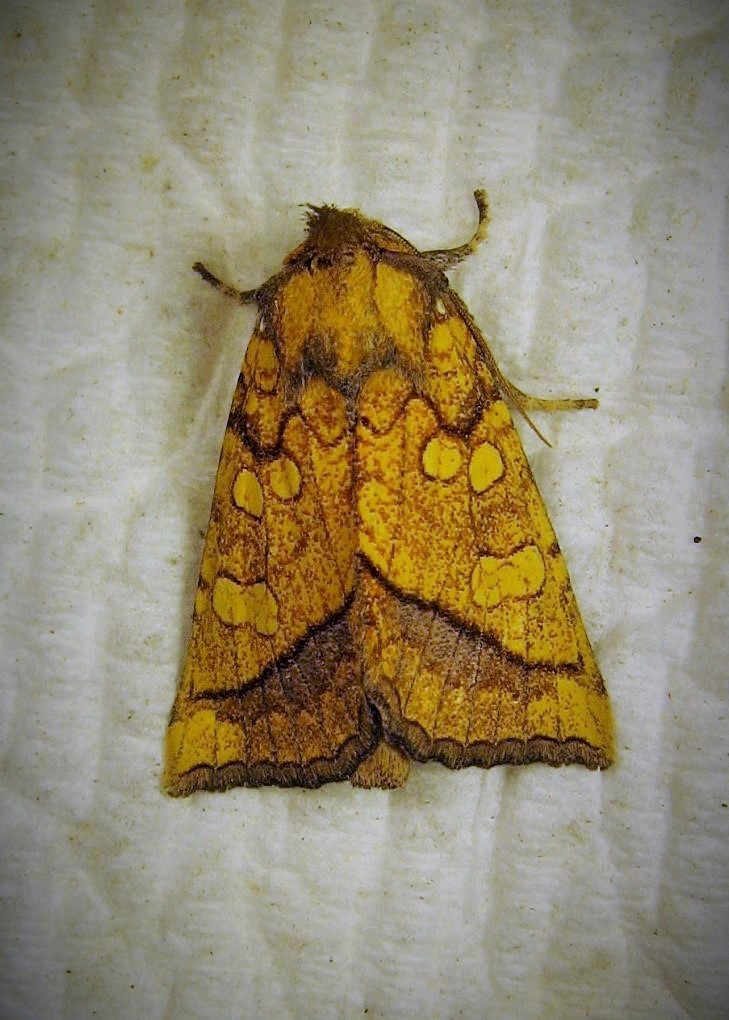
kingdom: Animalia
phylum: Arthropoda
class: Insecta
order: Lepidoptera
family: Noctuidae
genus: Papaipema
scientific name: Papaipema rigida
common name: Rigid sunflower borer moth
